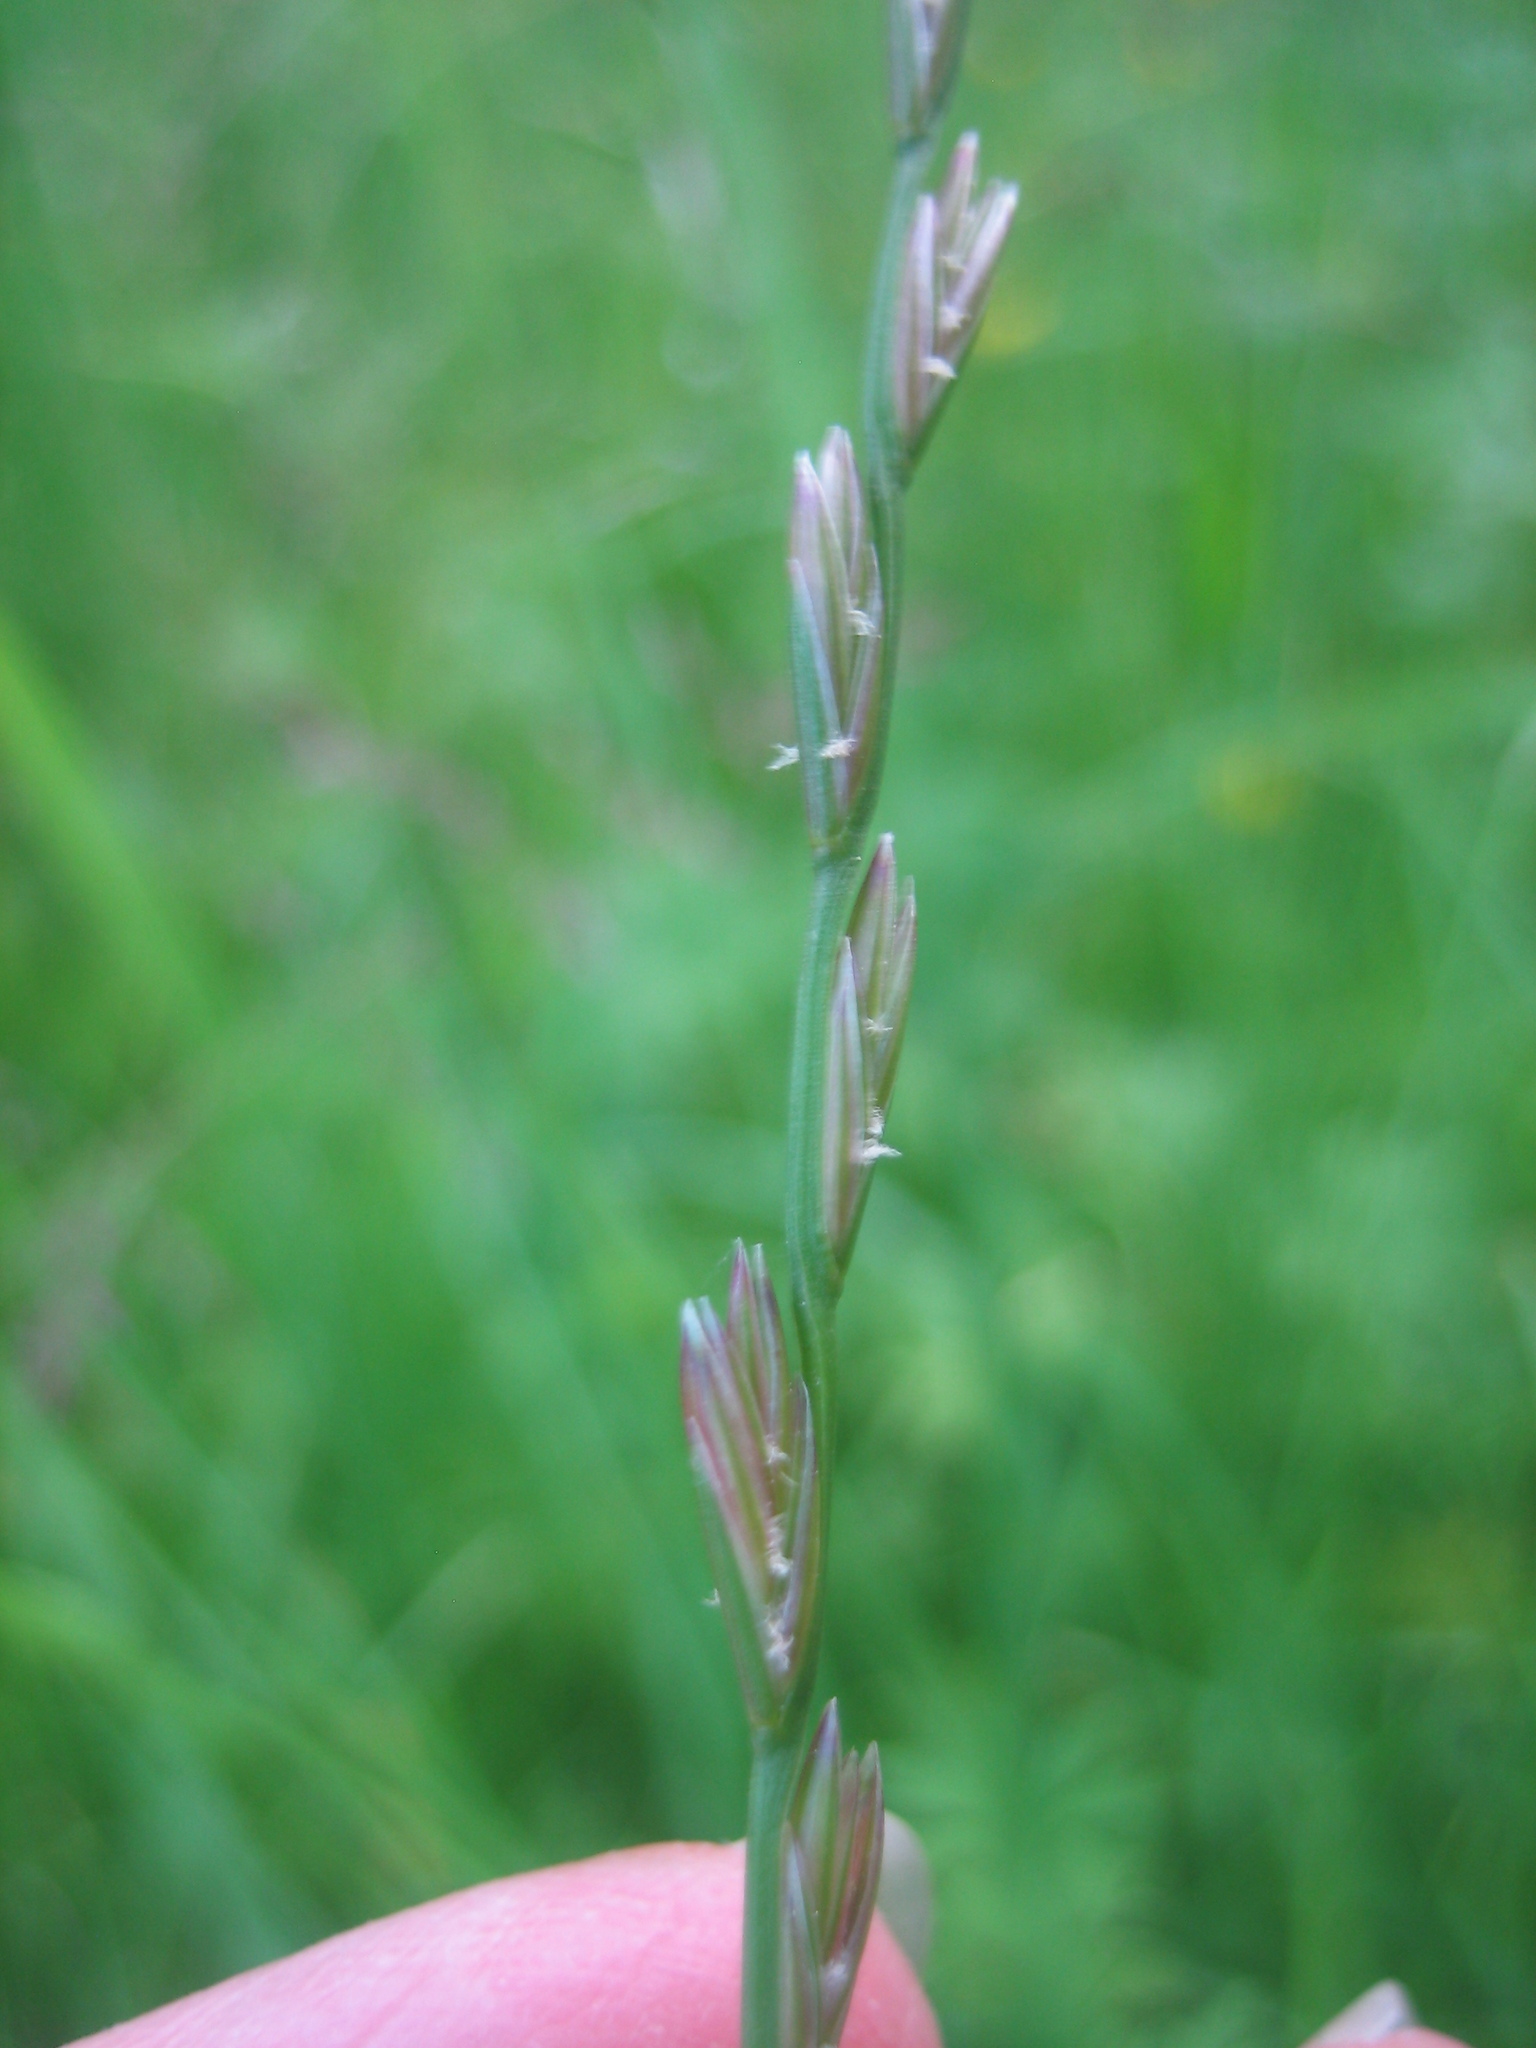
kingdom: Plantae
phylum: Tracheophyta
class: Liliopsida
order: Poales
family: Poaceae
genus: Lolium
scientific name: Lolium perenne
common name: Perennial ryegrass
